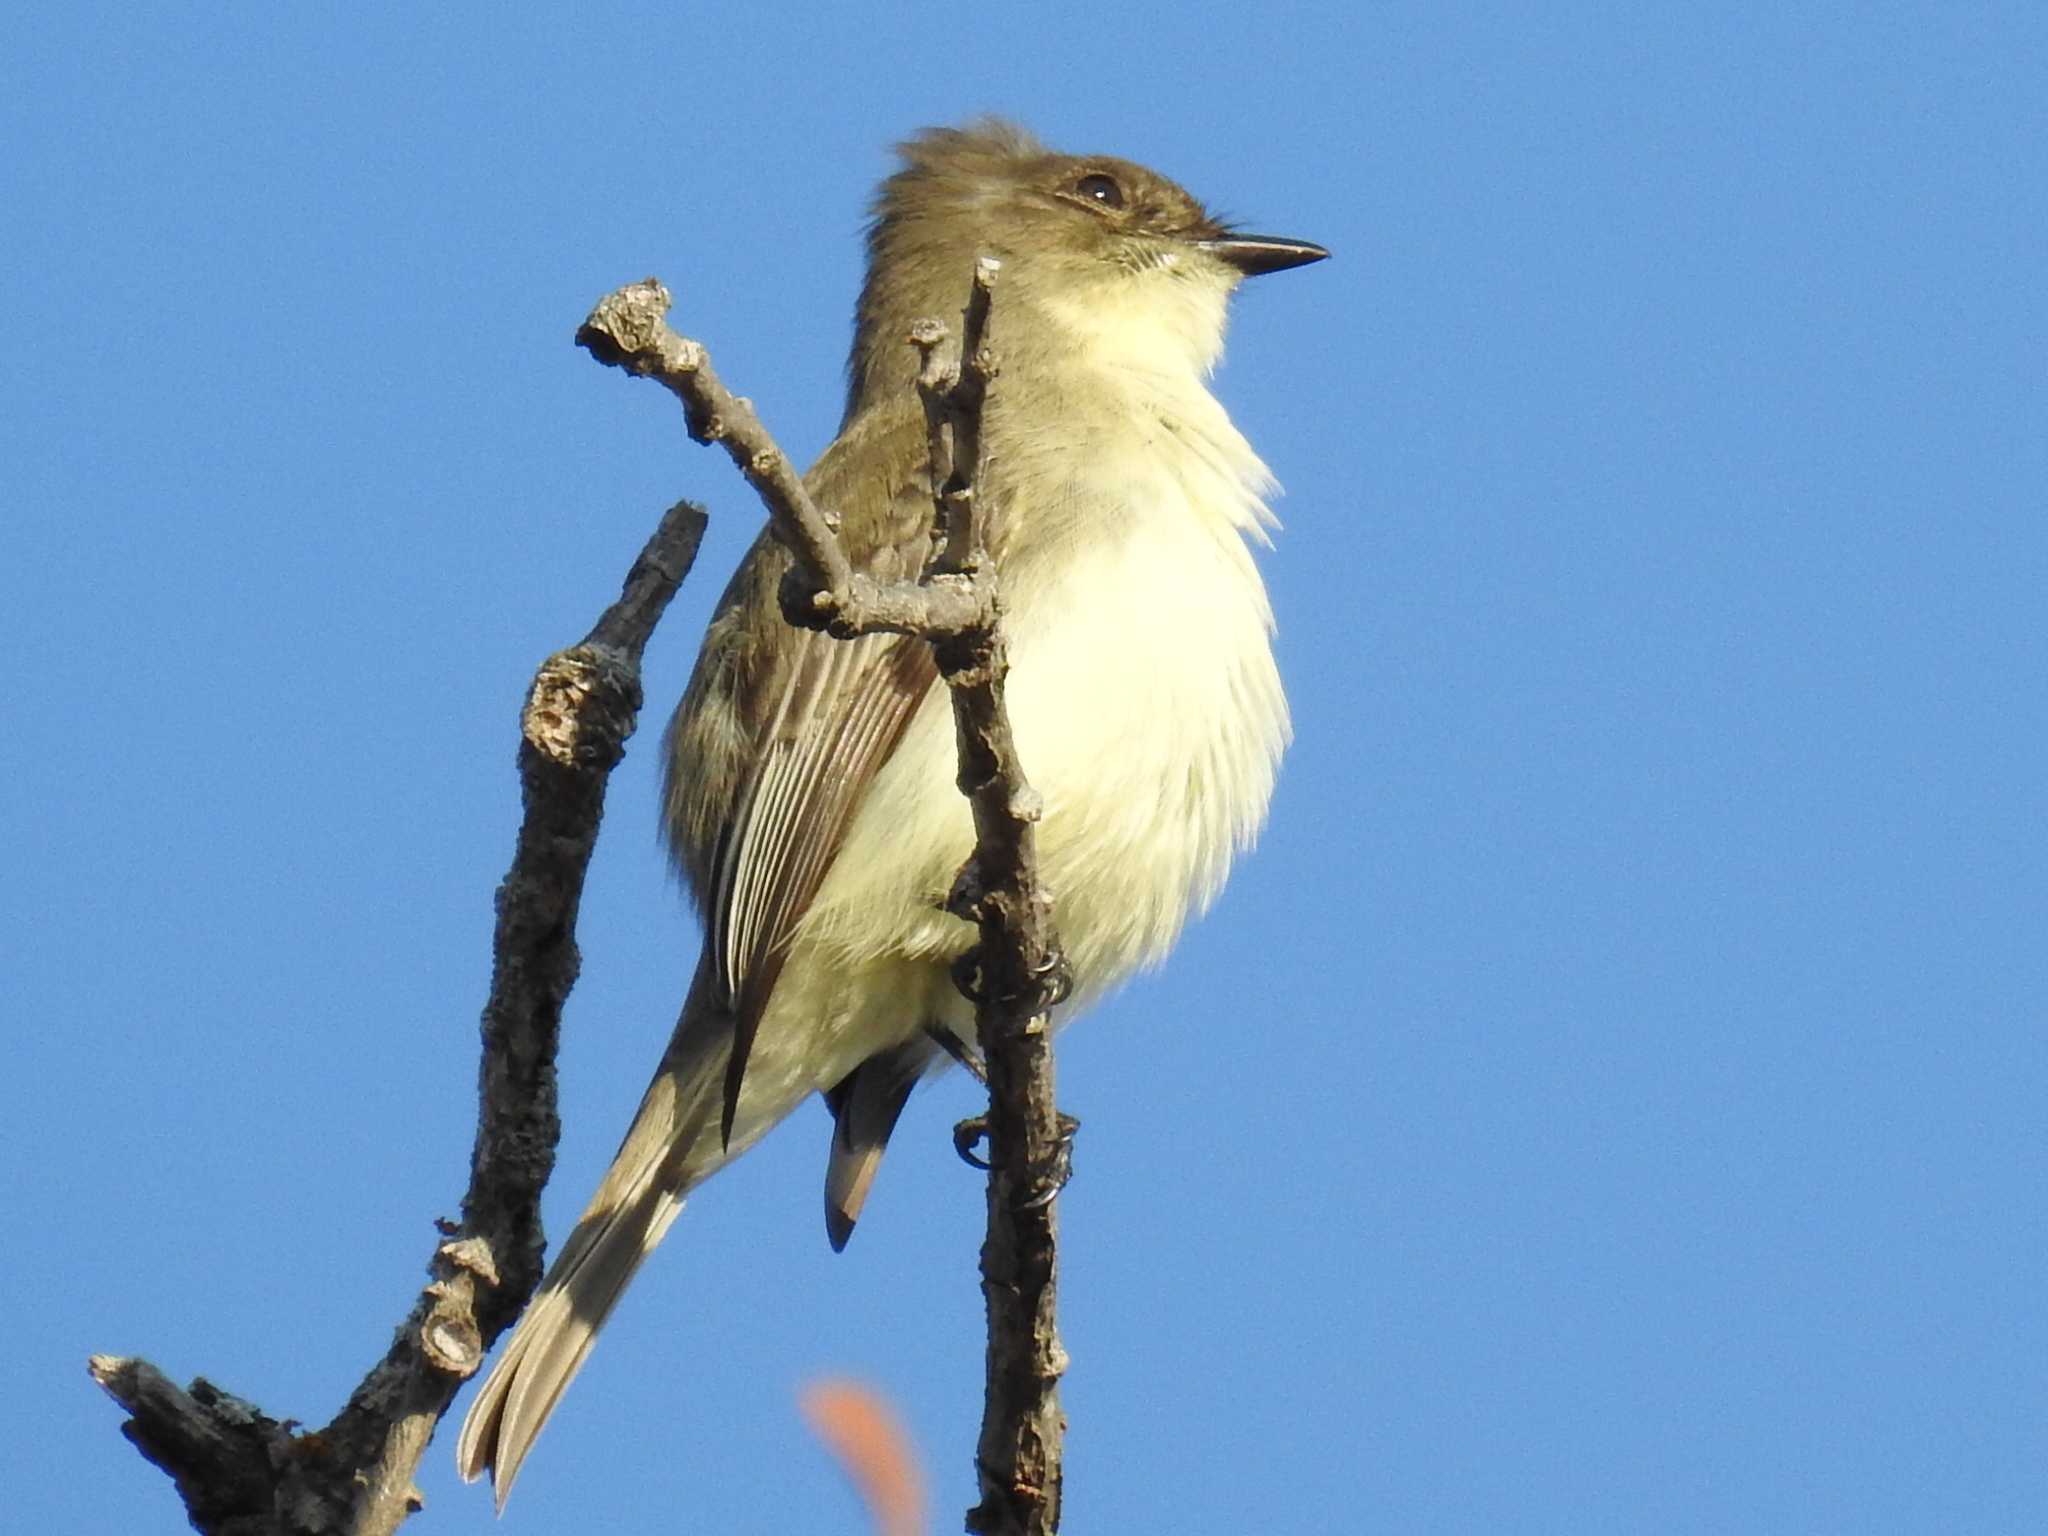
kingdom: Animalia
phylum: Chordata
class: Aves
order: Passeriformes
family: Tyrannidae
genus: Sayornis
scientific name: Sayornis phoebe
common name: Eastern phoebe
